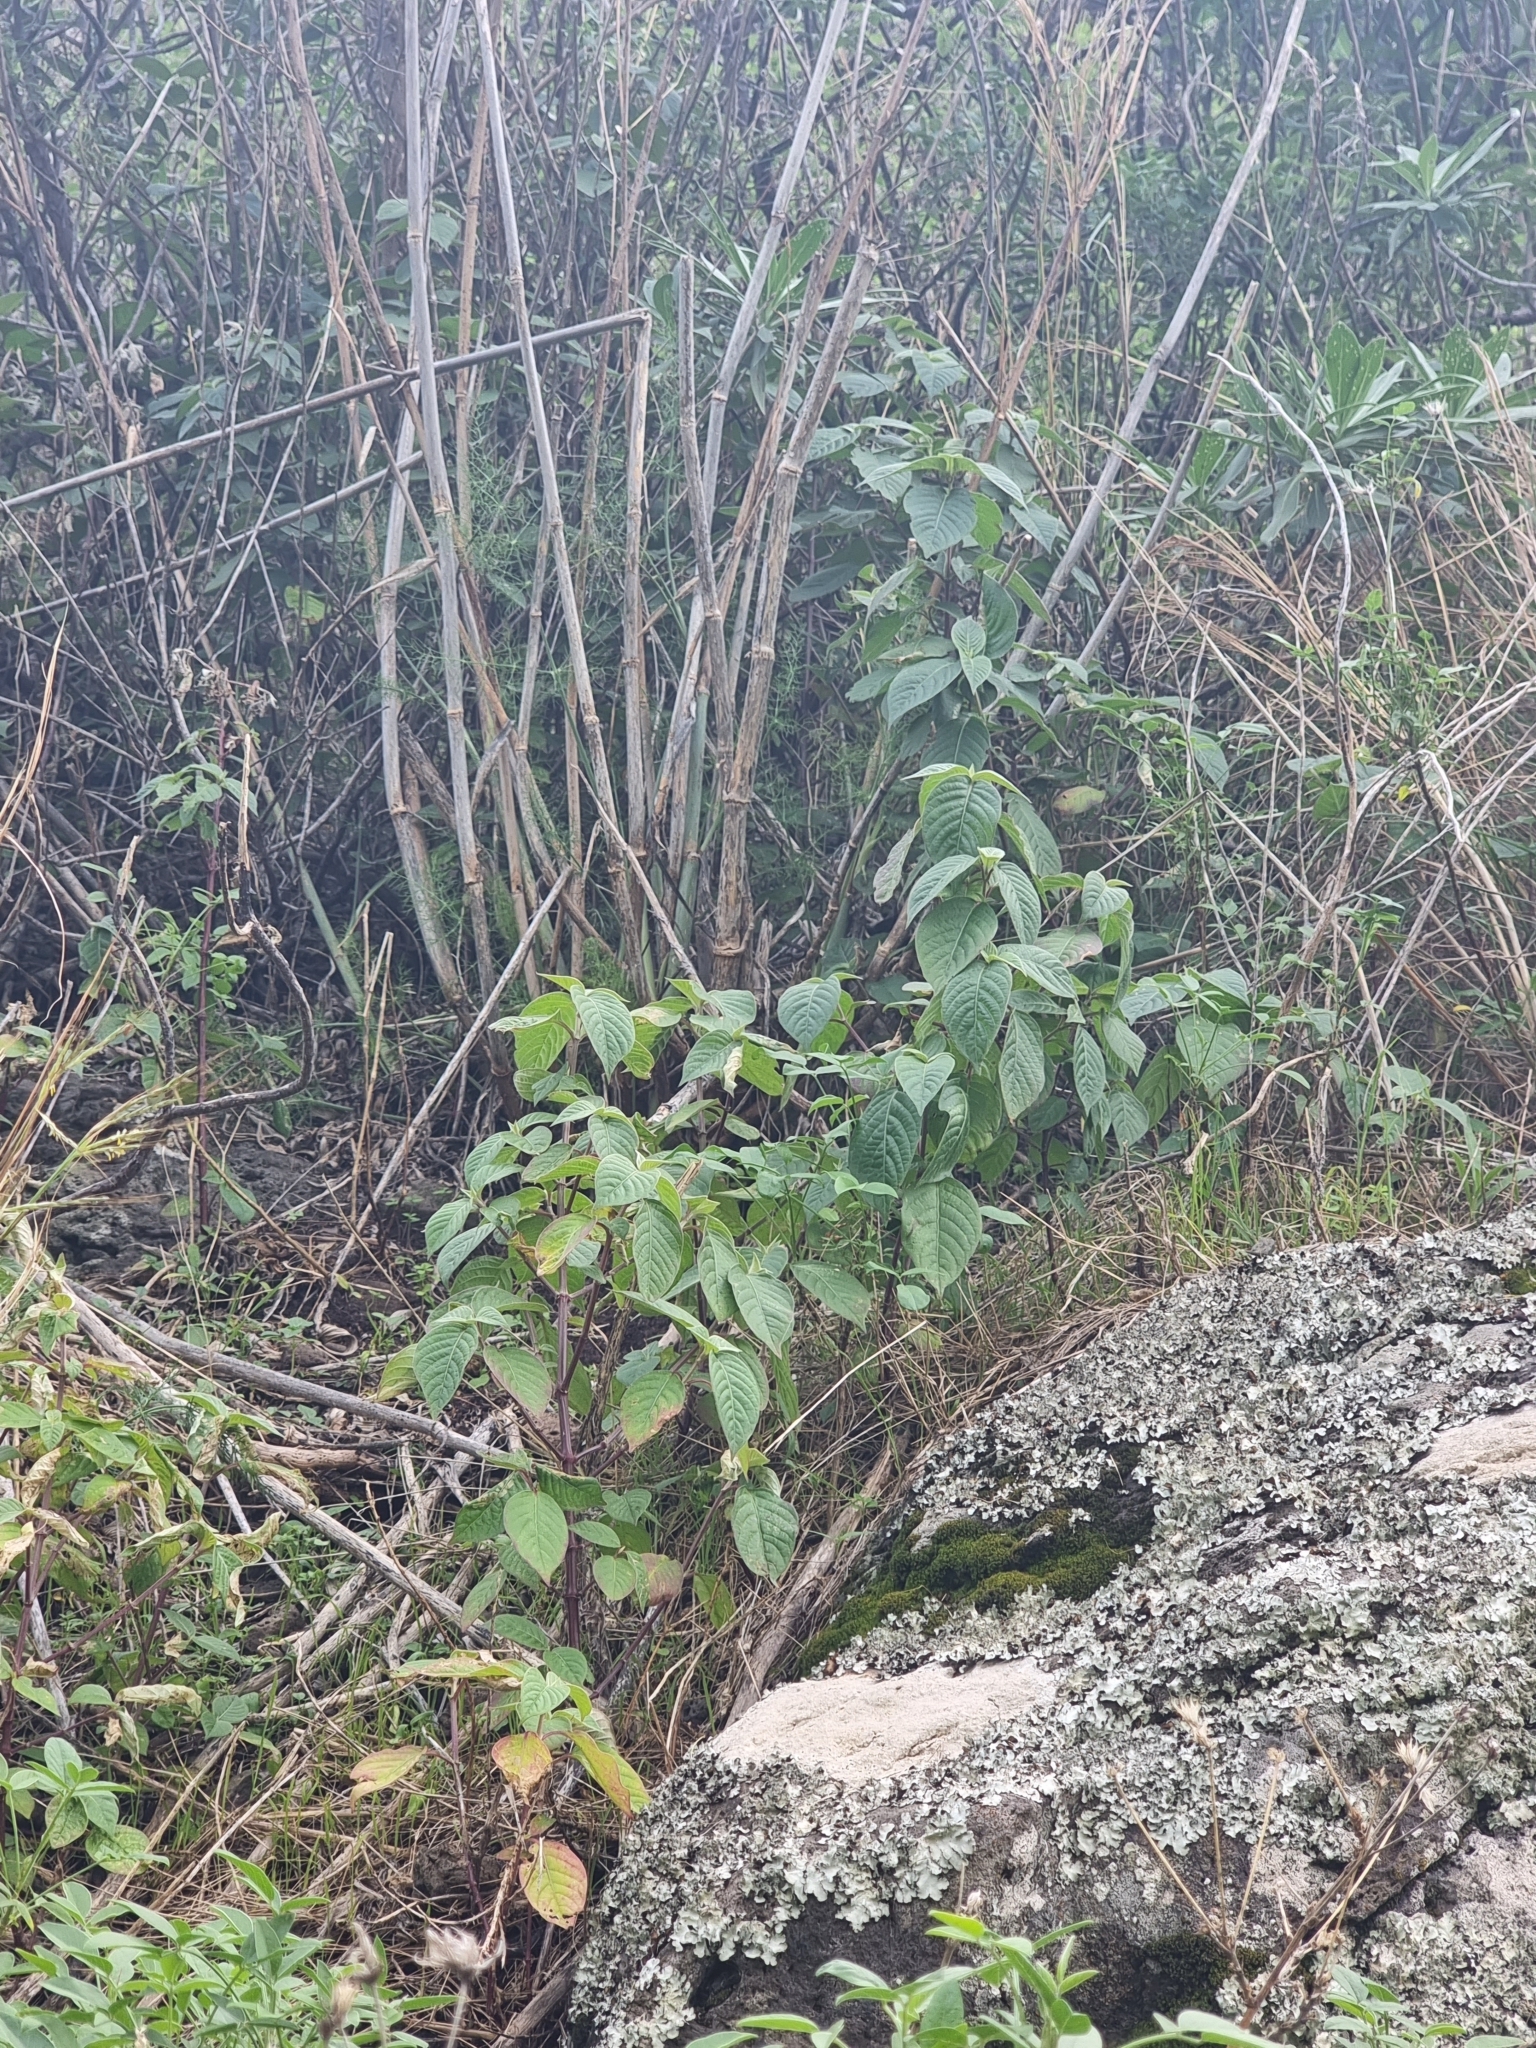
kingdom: Plantae
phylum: Tracheophyta
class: Magnoliopsida
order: Caryophyllales
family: Amaranthaceae
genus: Achyranthes
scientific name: Achyranthes aspera
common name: Devil's horsewhip
